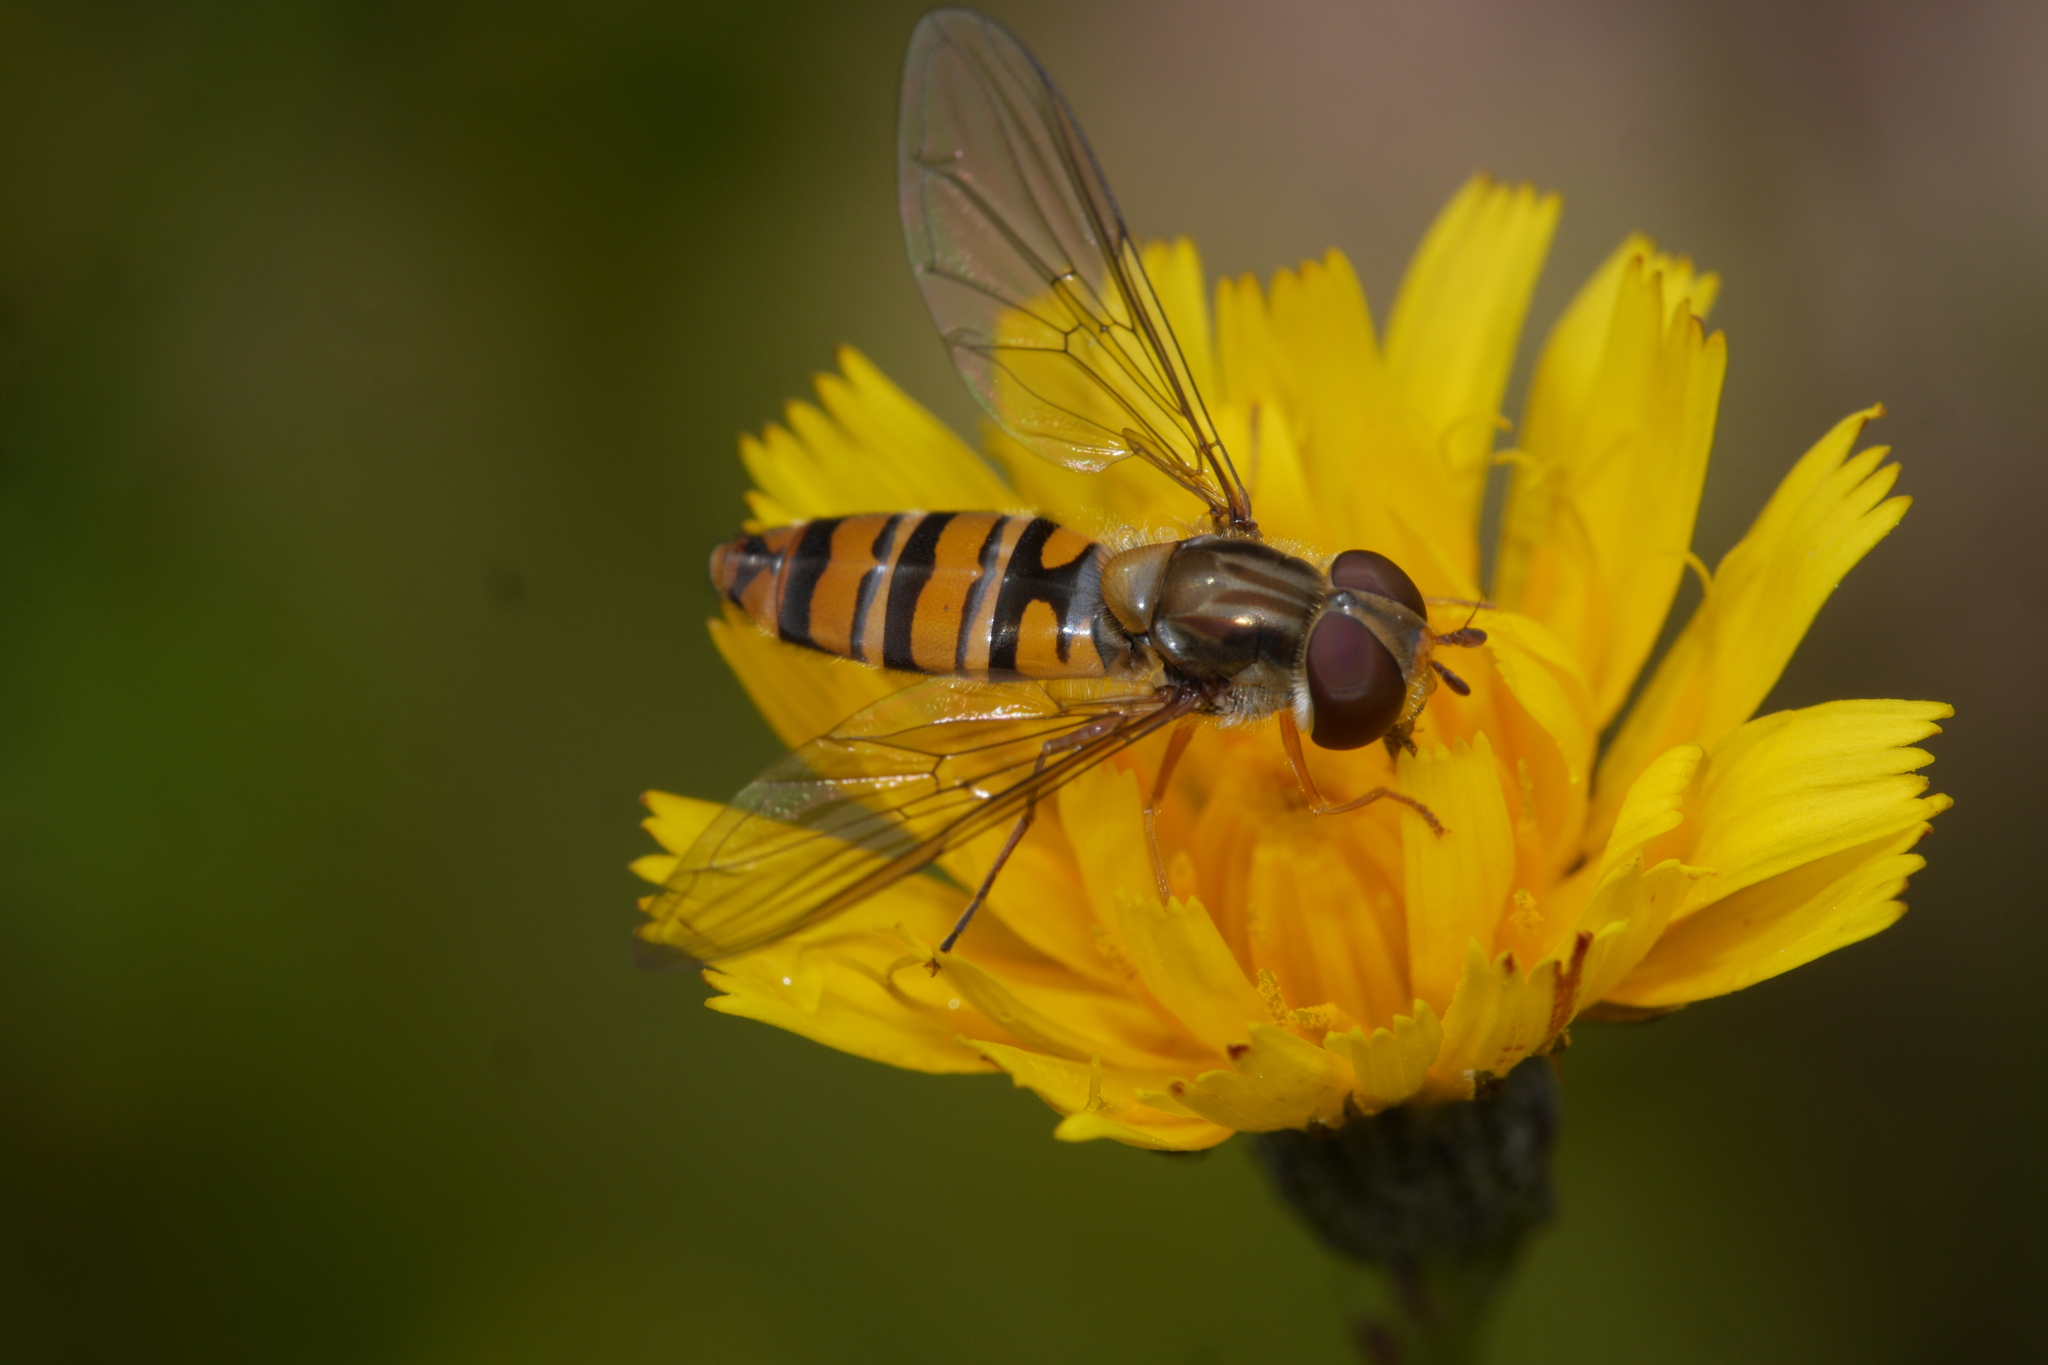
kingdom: Animalia
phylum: Arthropoda
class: Insecta
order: Diptera
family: Syrphidae
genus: Episyrphus
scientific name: Episyrphus balteatus
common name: Marmalade hoverfly
